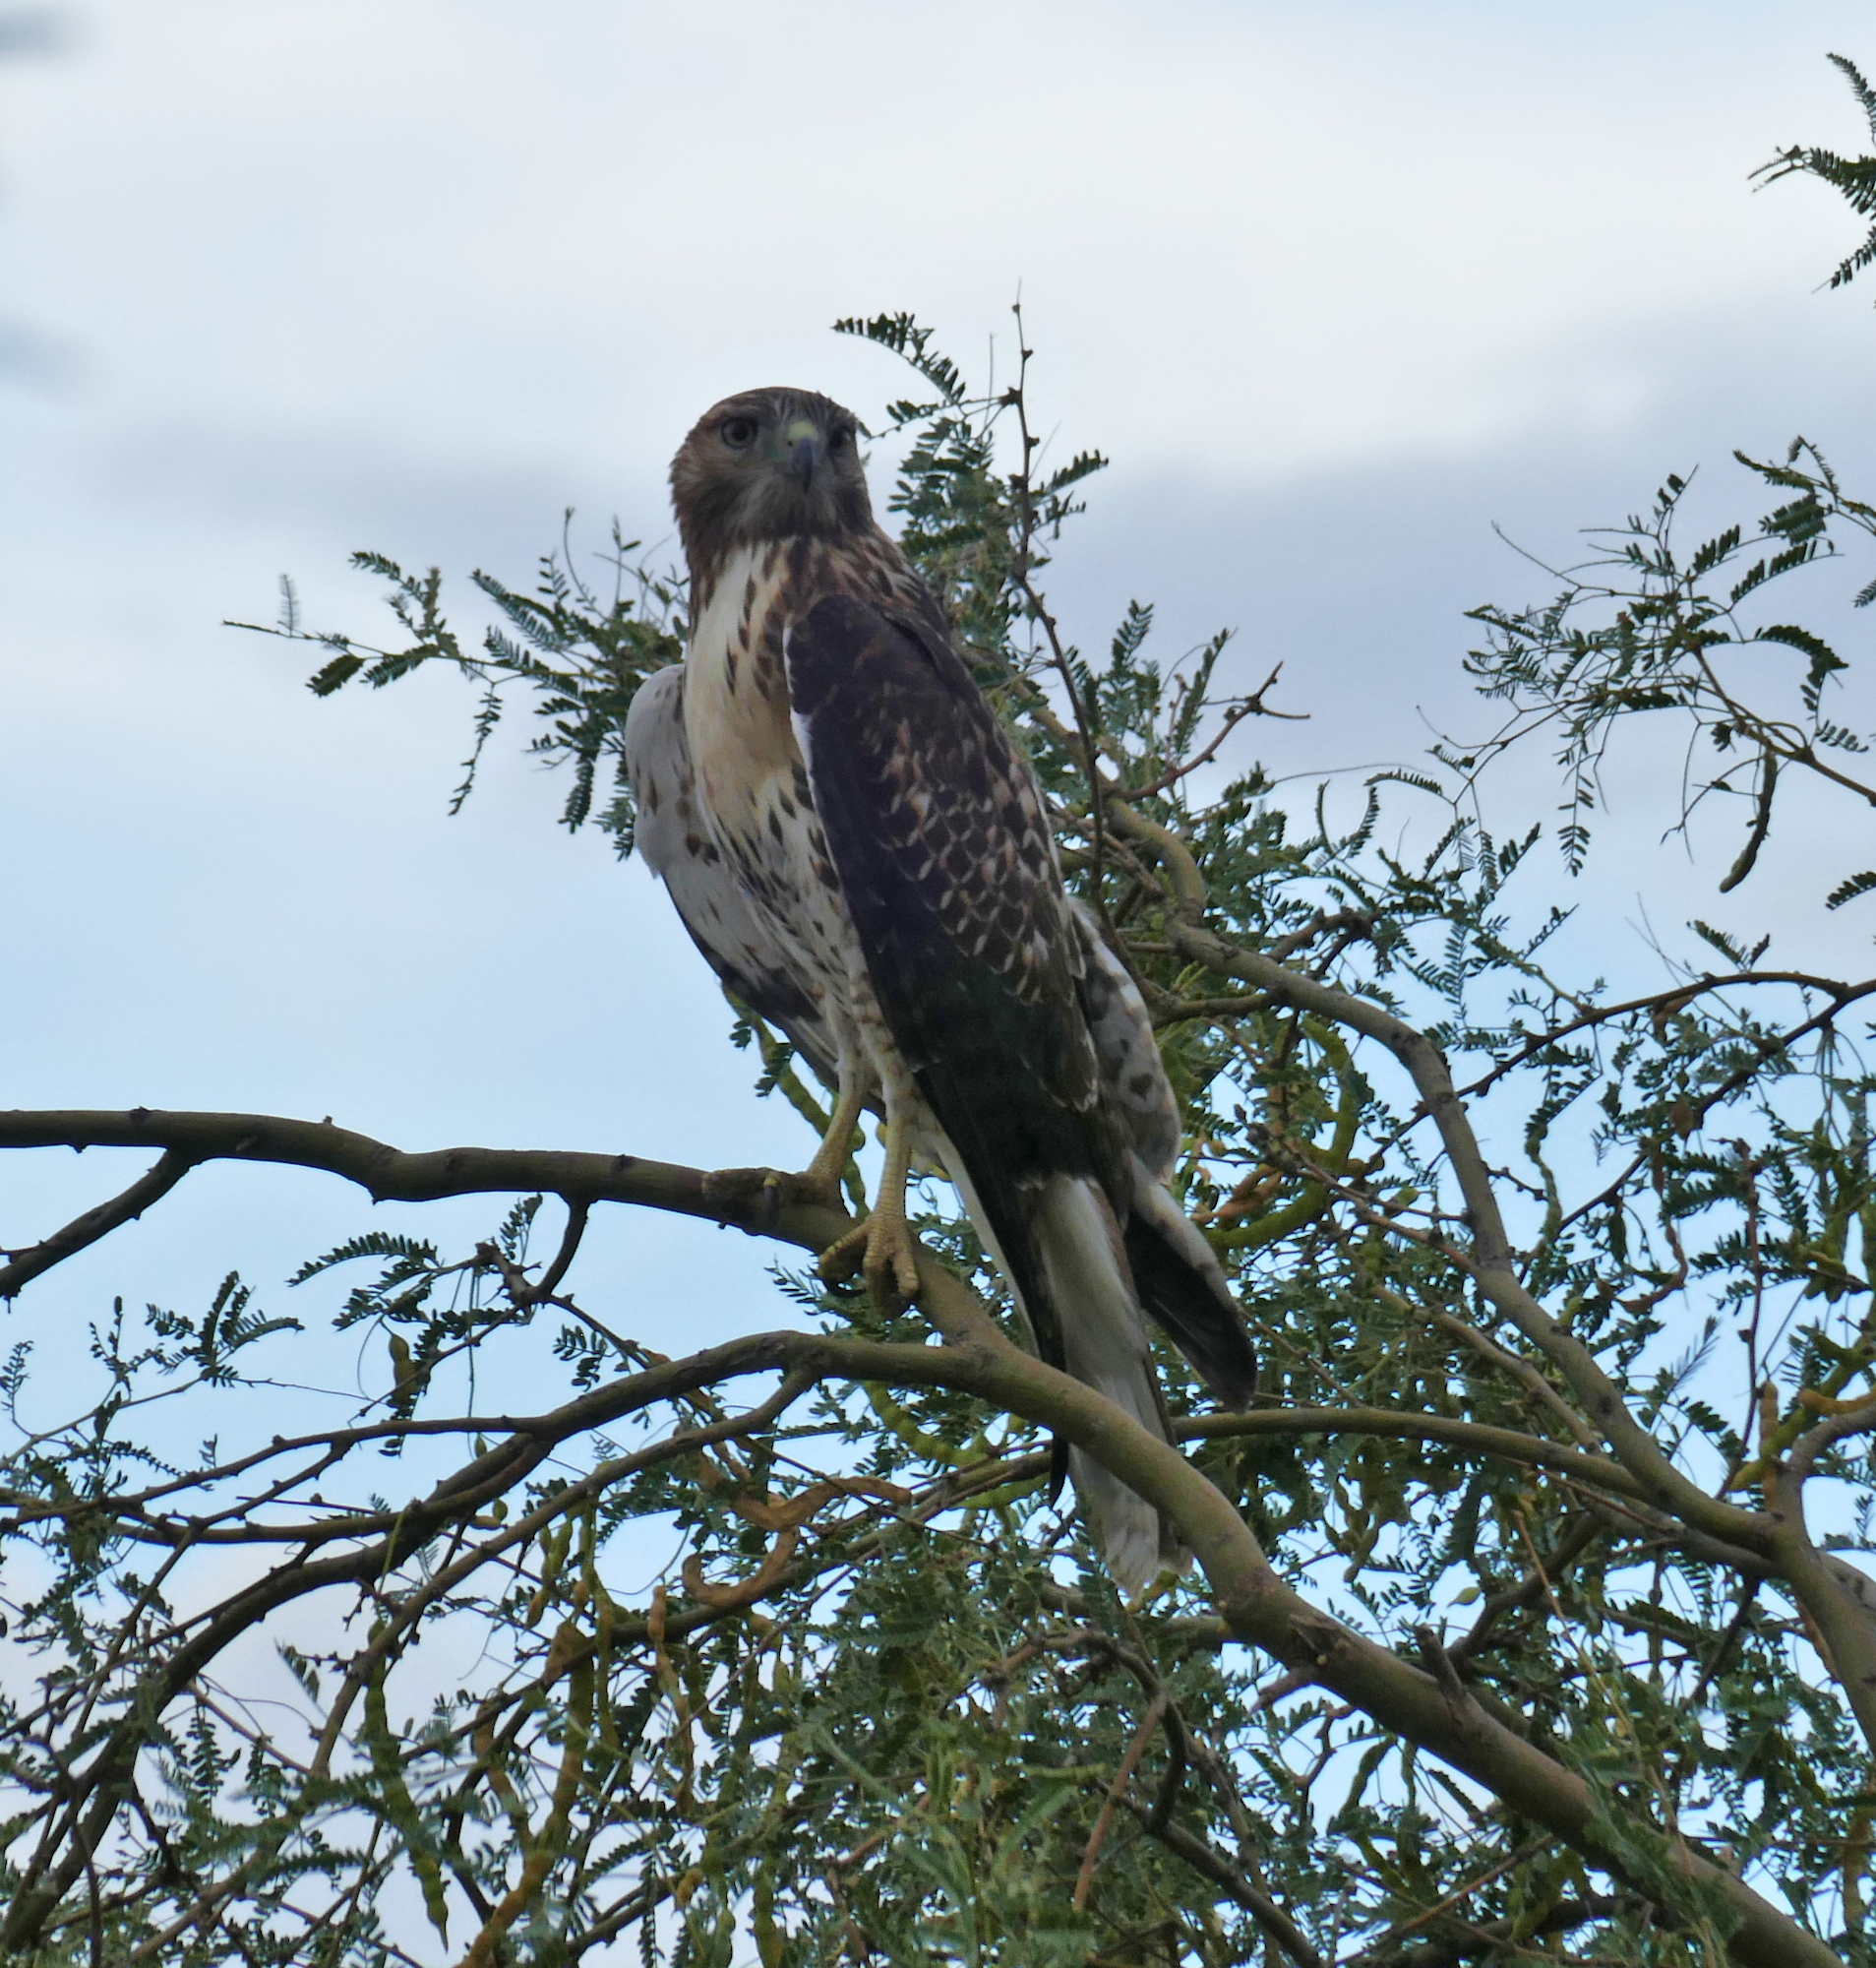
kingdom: Animalia
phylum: Chordata
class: Aves
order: Accipitriformes
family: Accipitridae
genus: Buteo
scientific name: Buteo jamaicensis
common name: Red-tailed hawk
